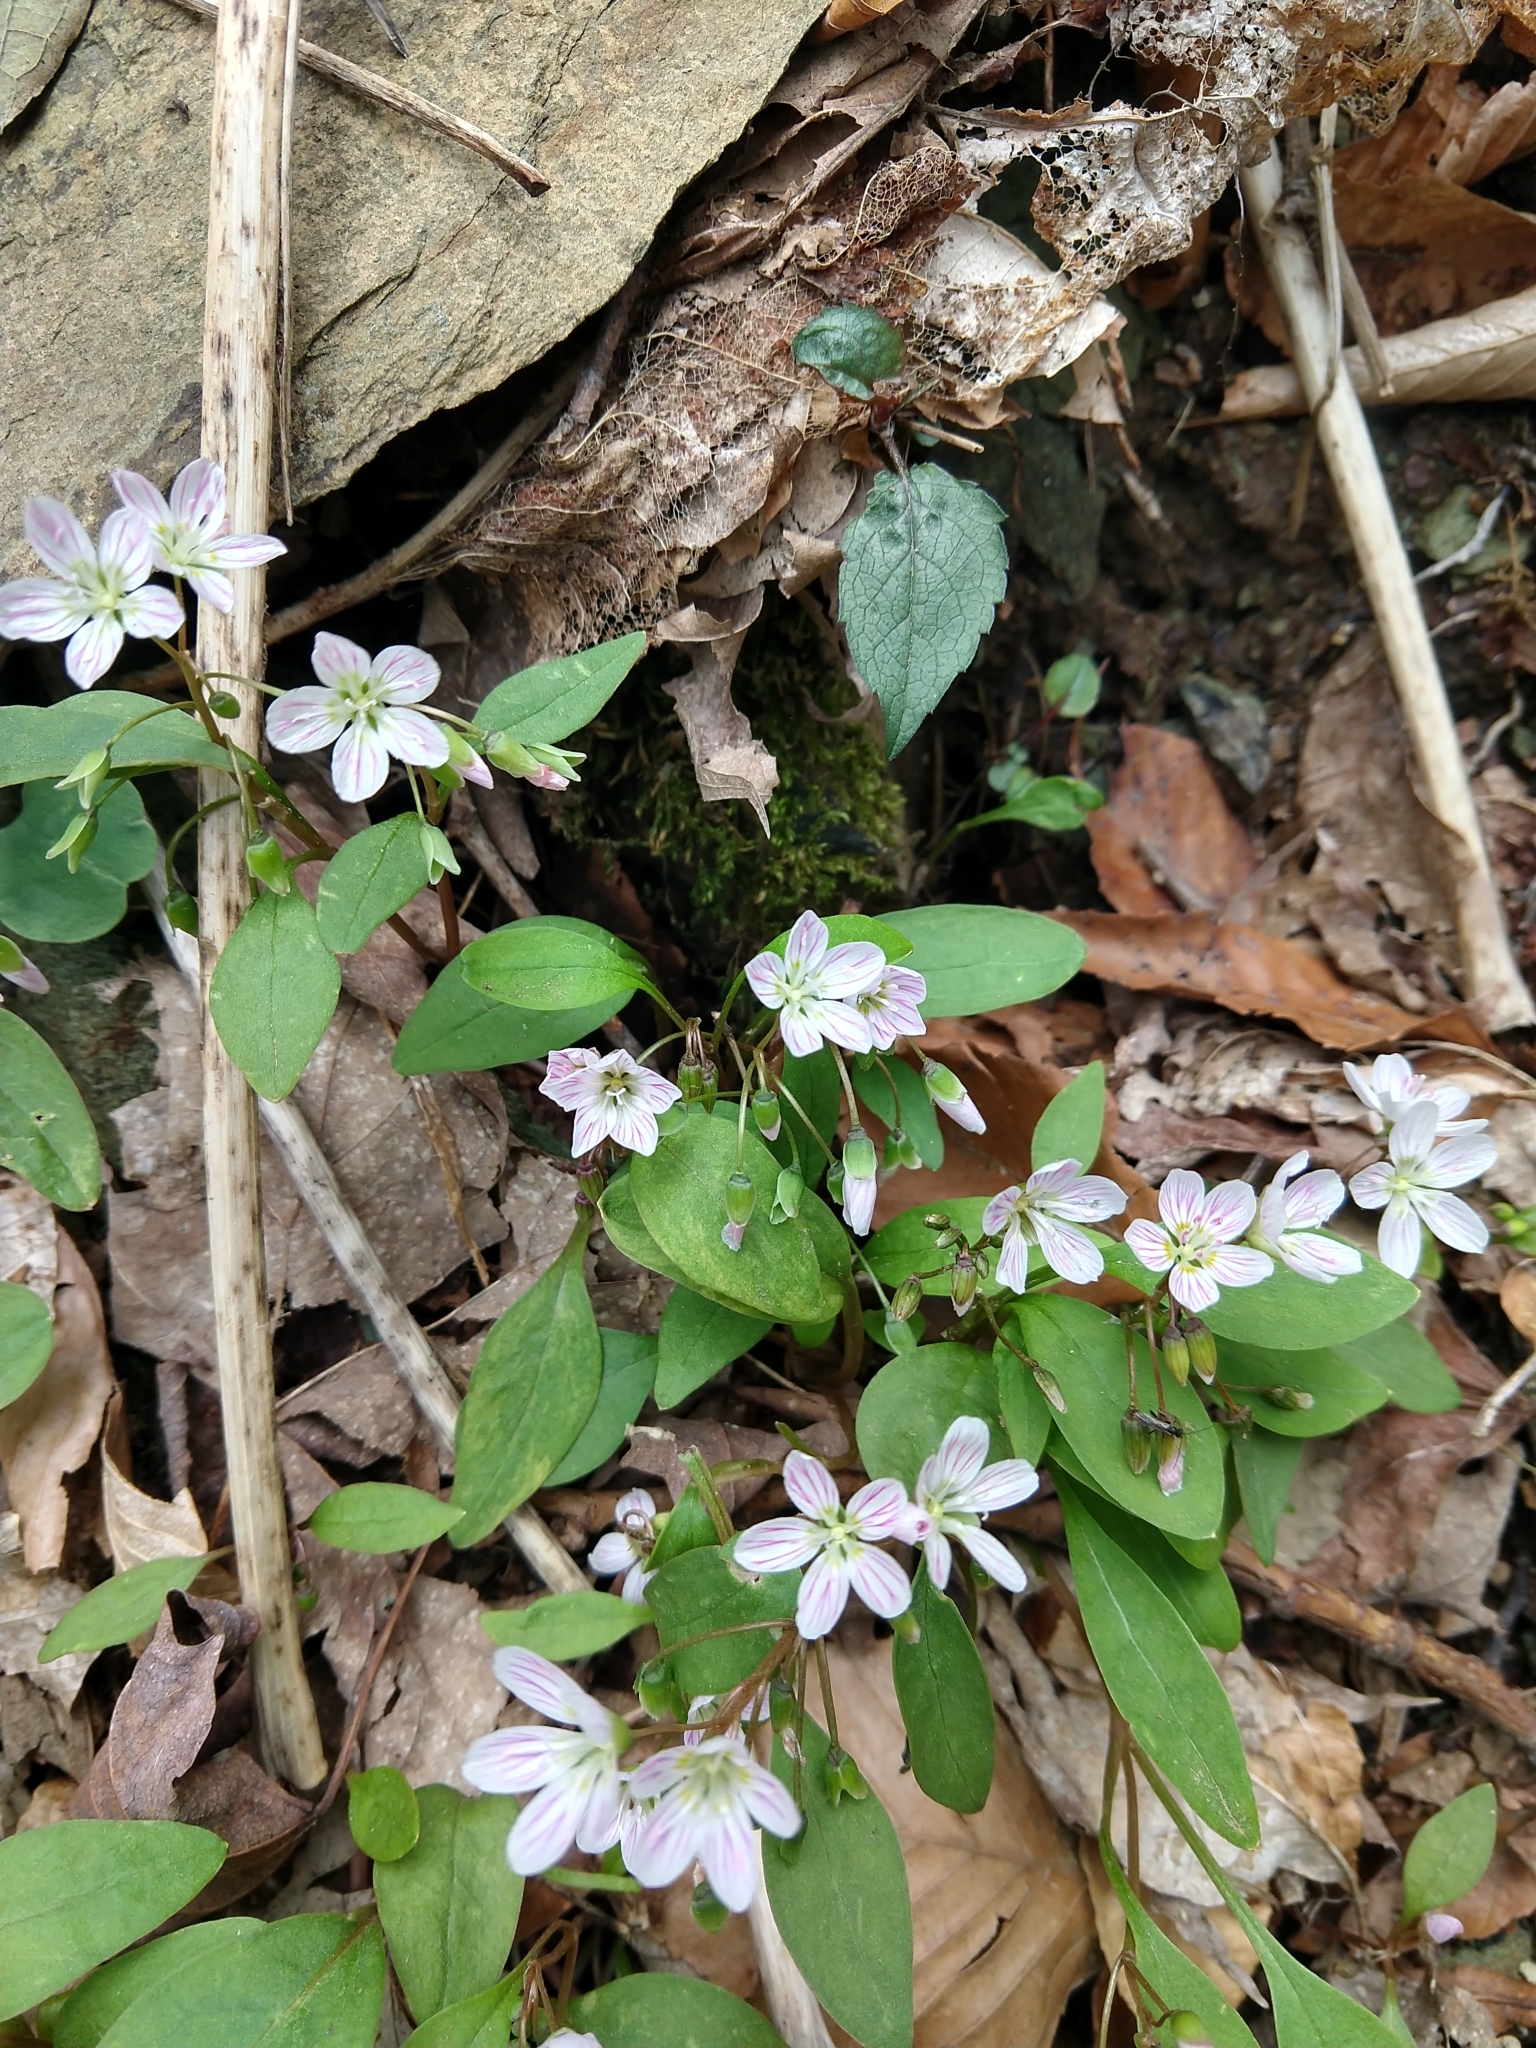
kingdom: Plantae
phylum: Tracheophyta
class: Magnoliopsida
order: Caryophyllales
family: Montiaceae
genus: Claytonia
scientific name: Claytonia caroliniana
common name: Carolina spring beauty
